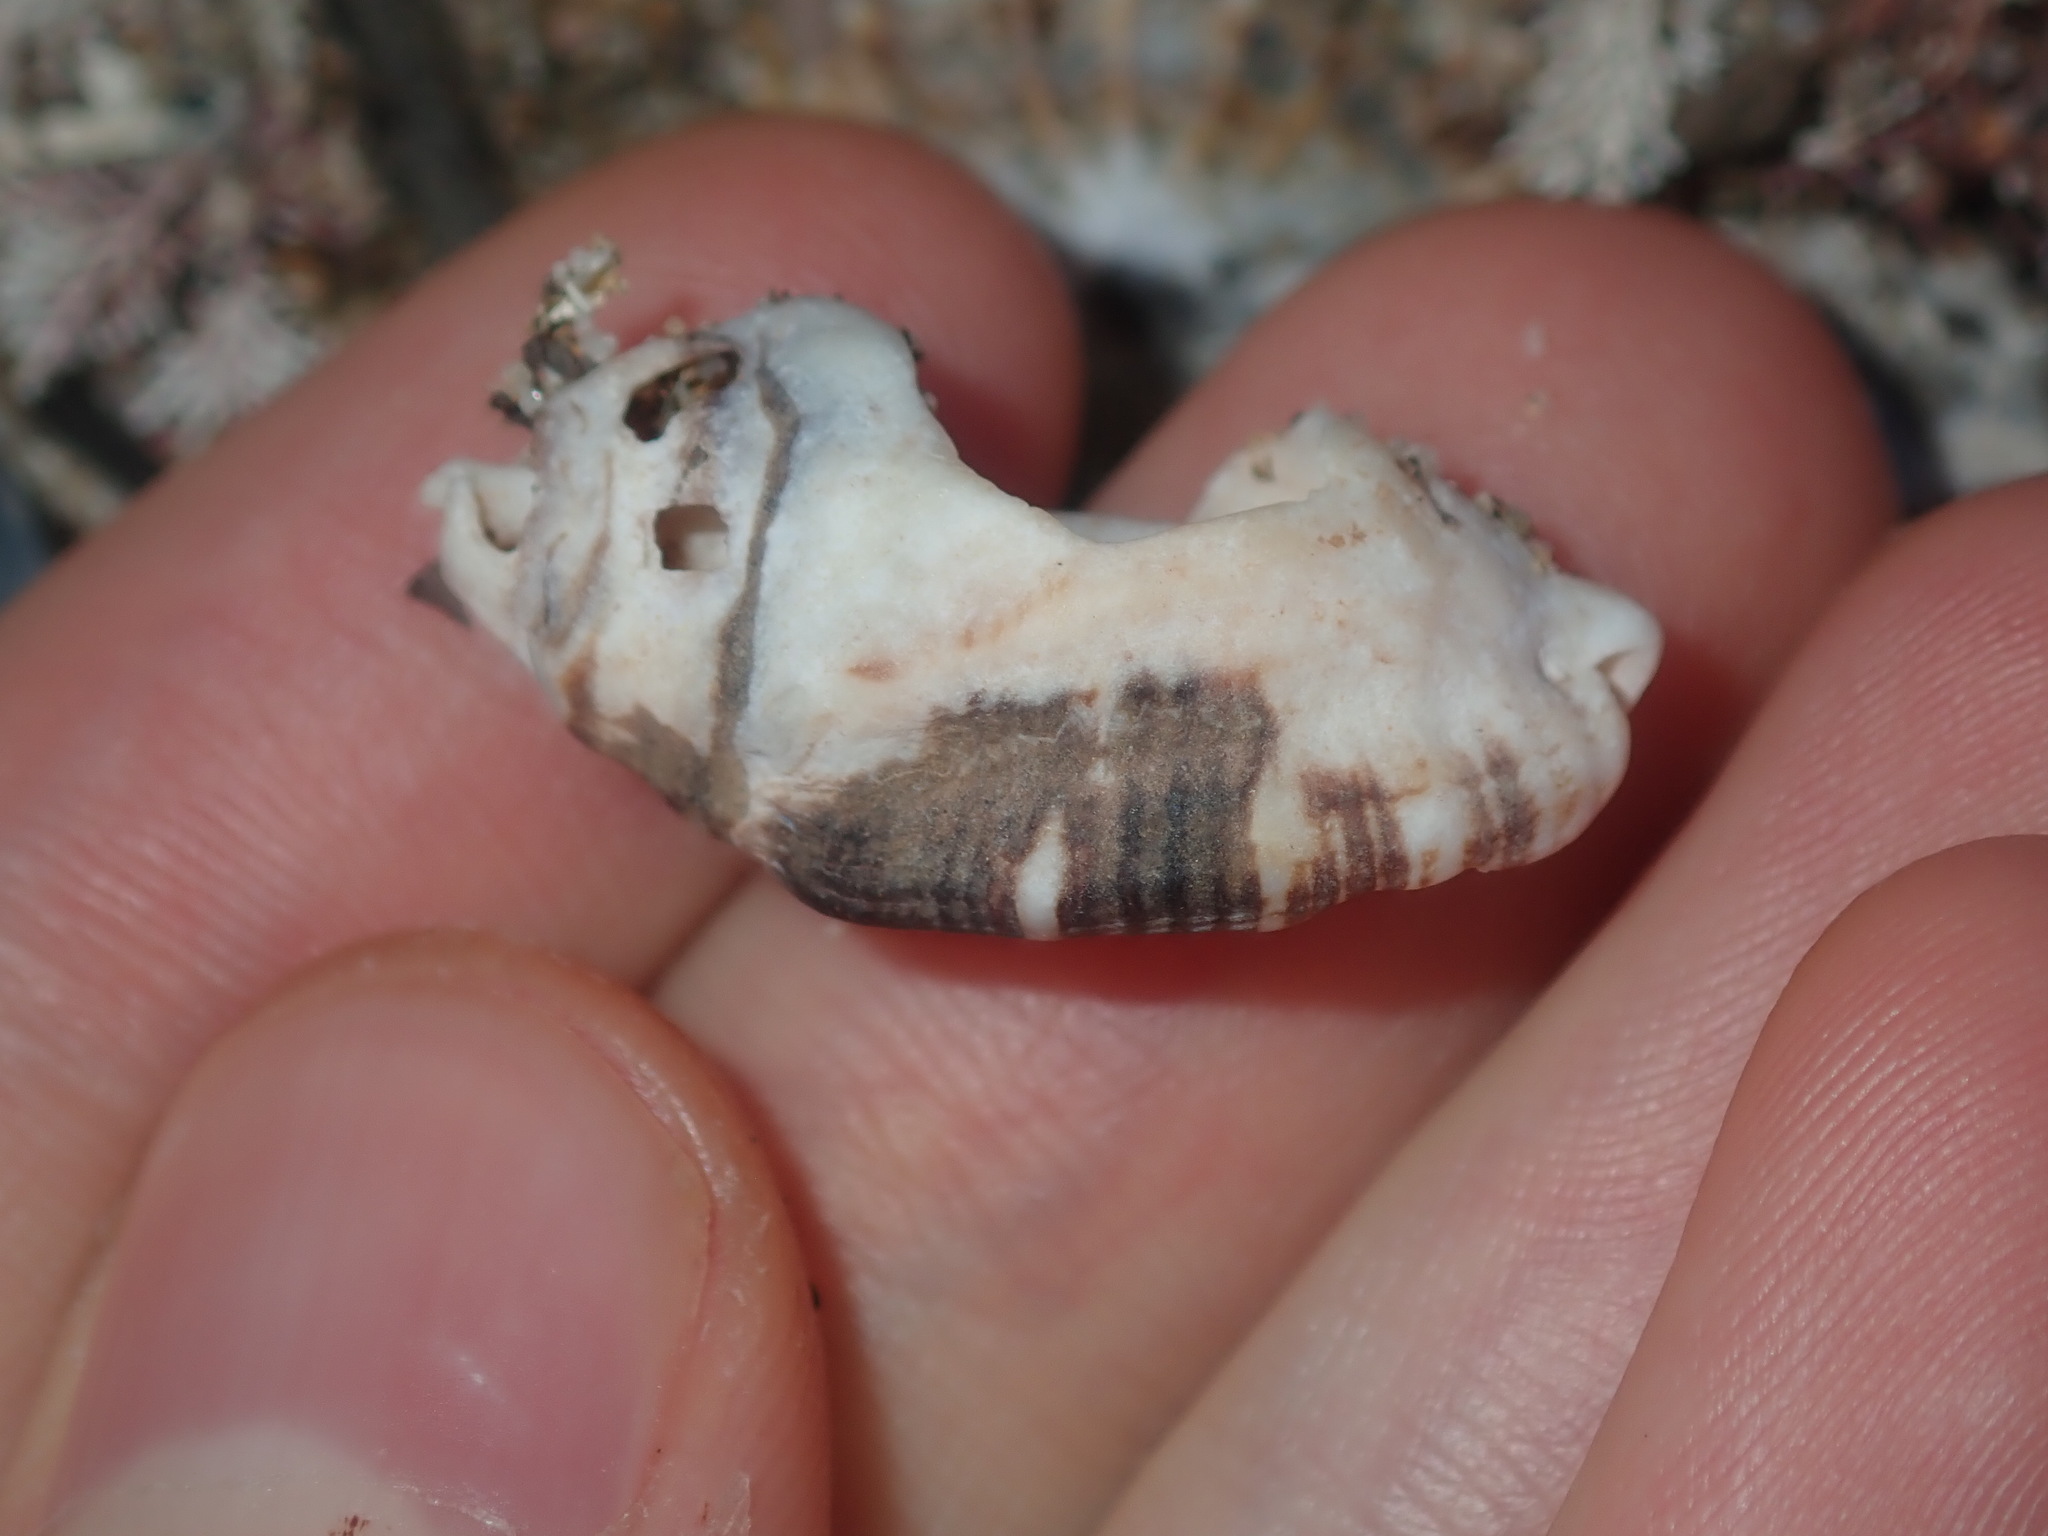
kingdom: Animalia
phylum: Mollusca
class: Gastropoda
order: Neogastropoda
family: Muricidae
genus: Cronia
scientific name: Cronia aurantiaca
